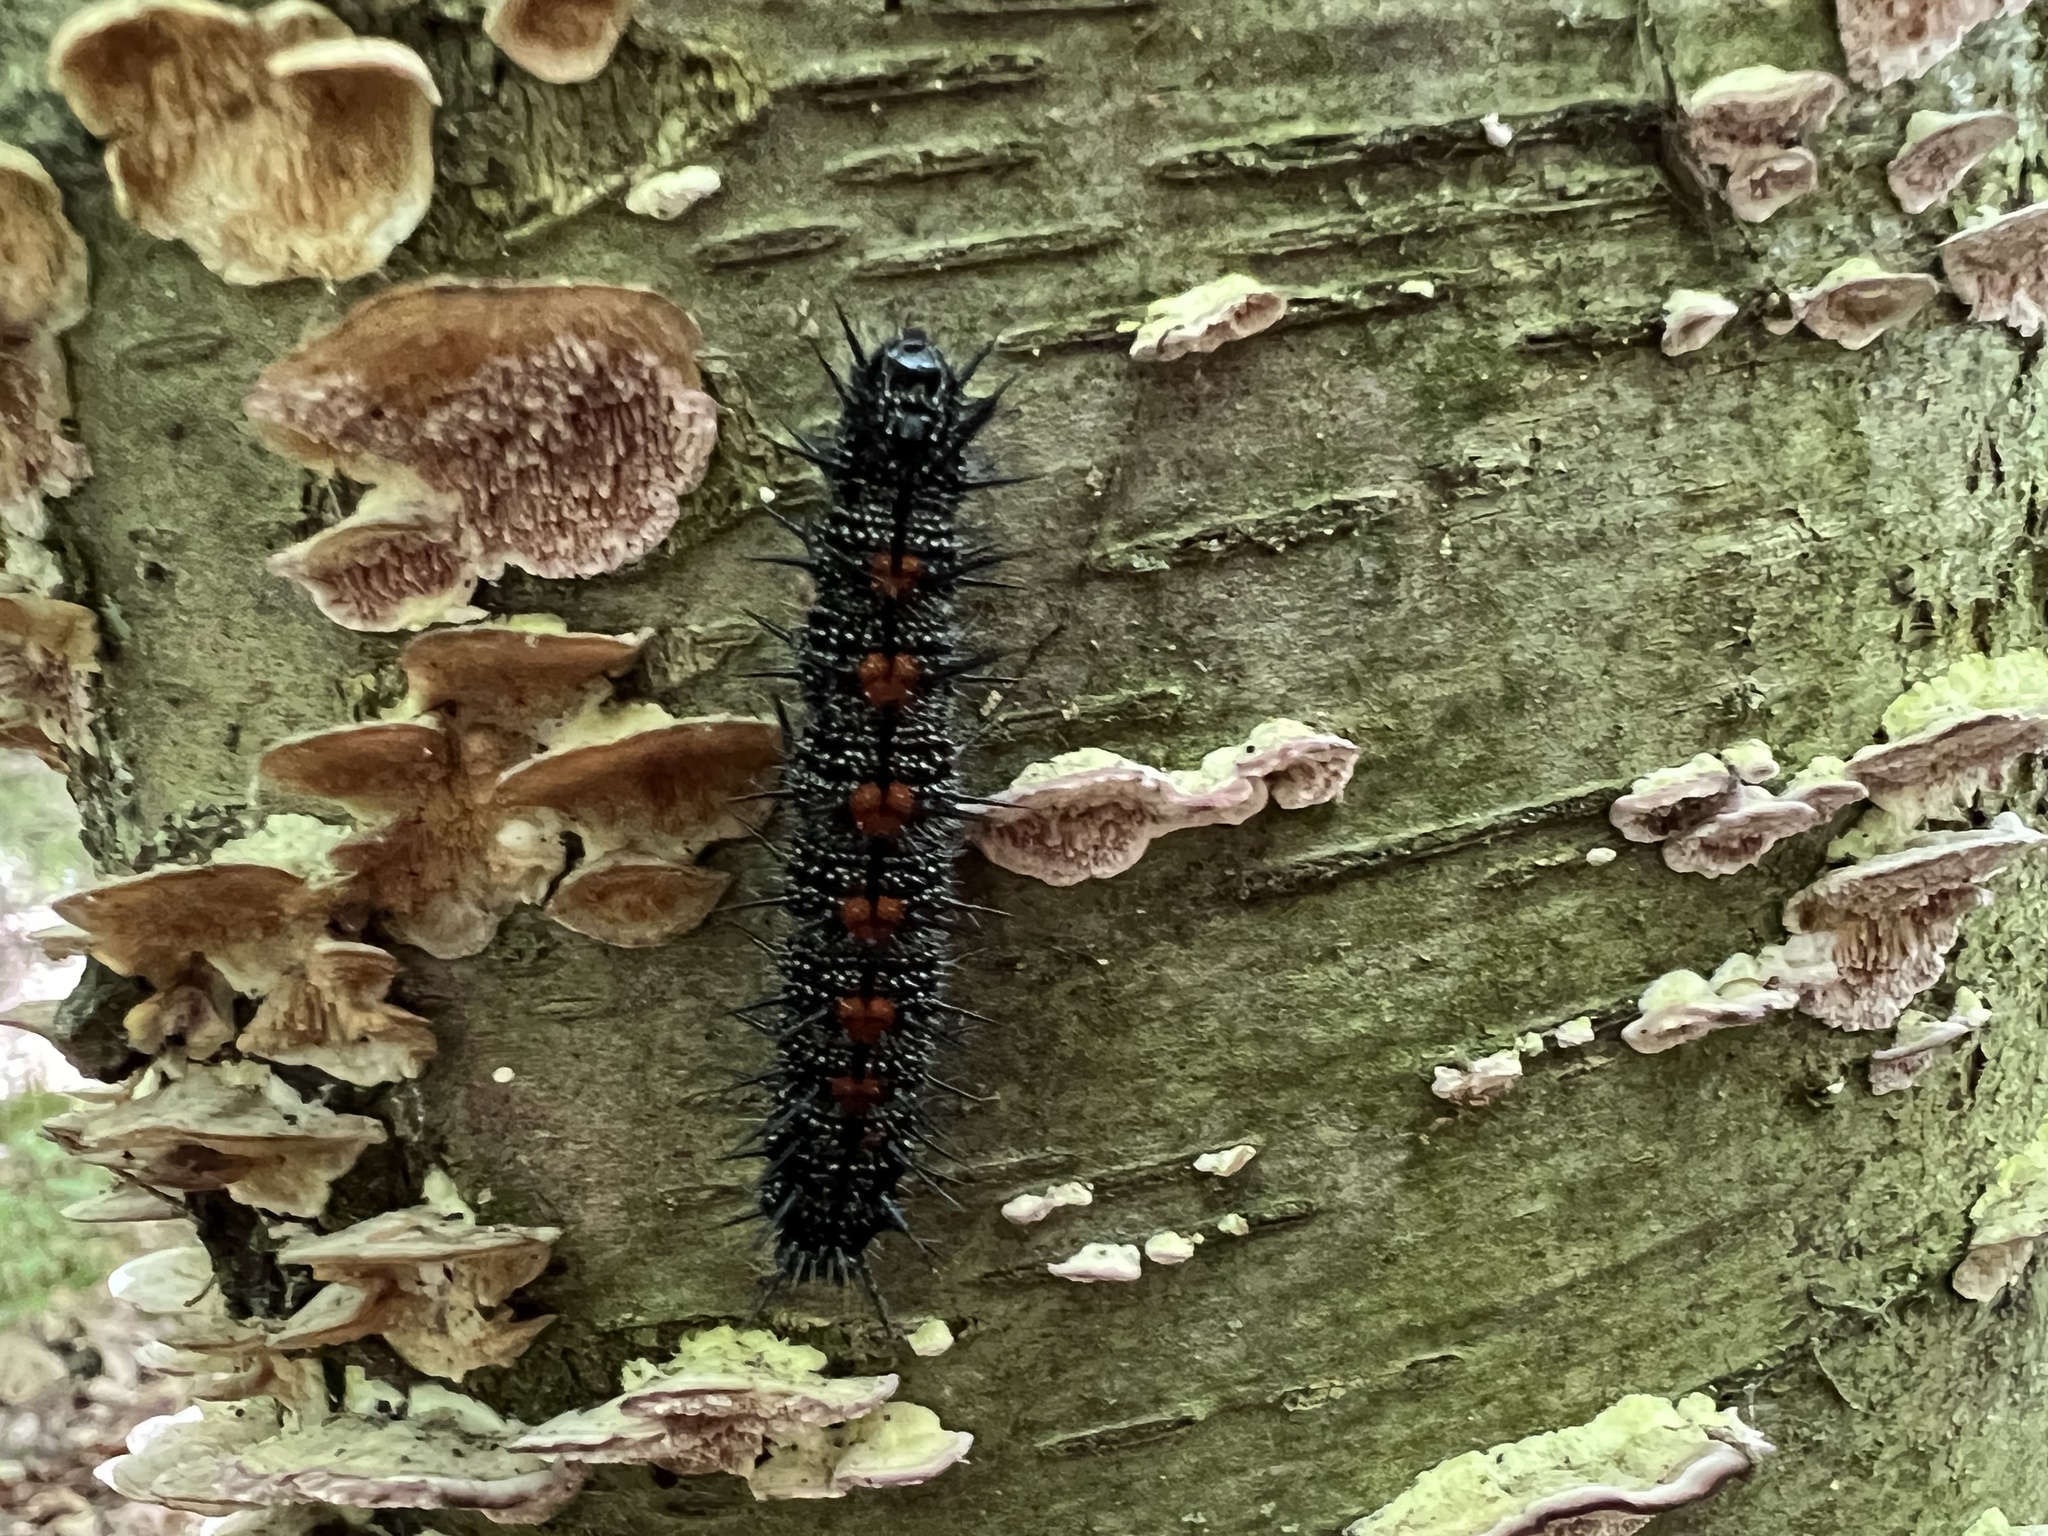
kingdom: Animalia
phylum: Arthropoda
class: Insecta
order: Lepidoptera
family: Nymphalidae
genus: Nymphalis
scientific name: Nymphalis antiopa
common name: Camberwell beauty
